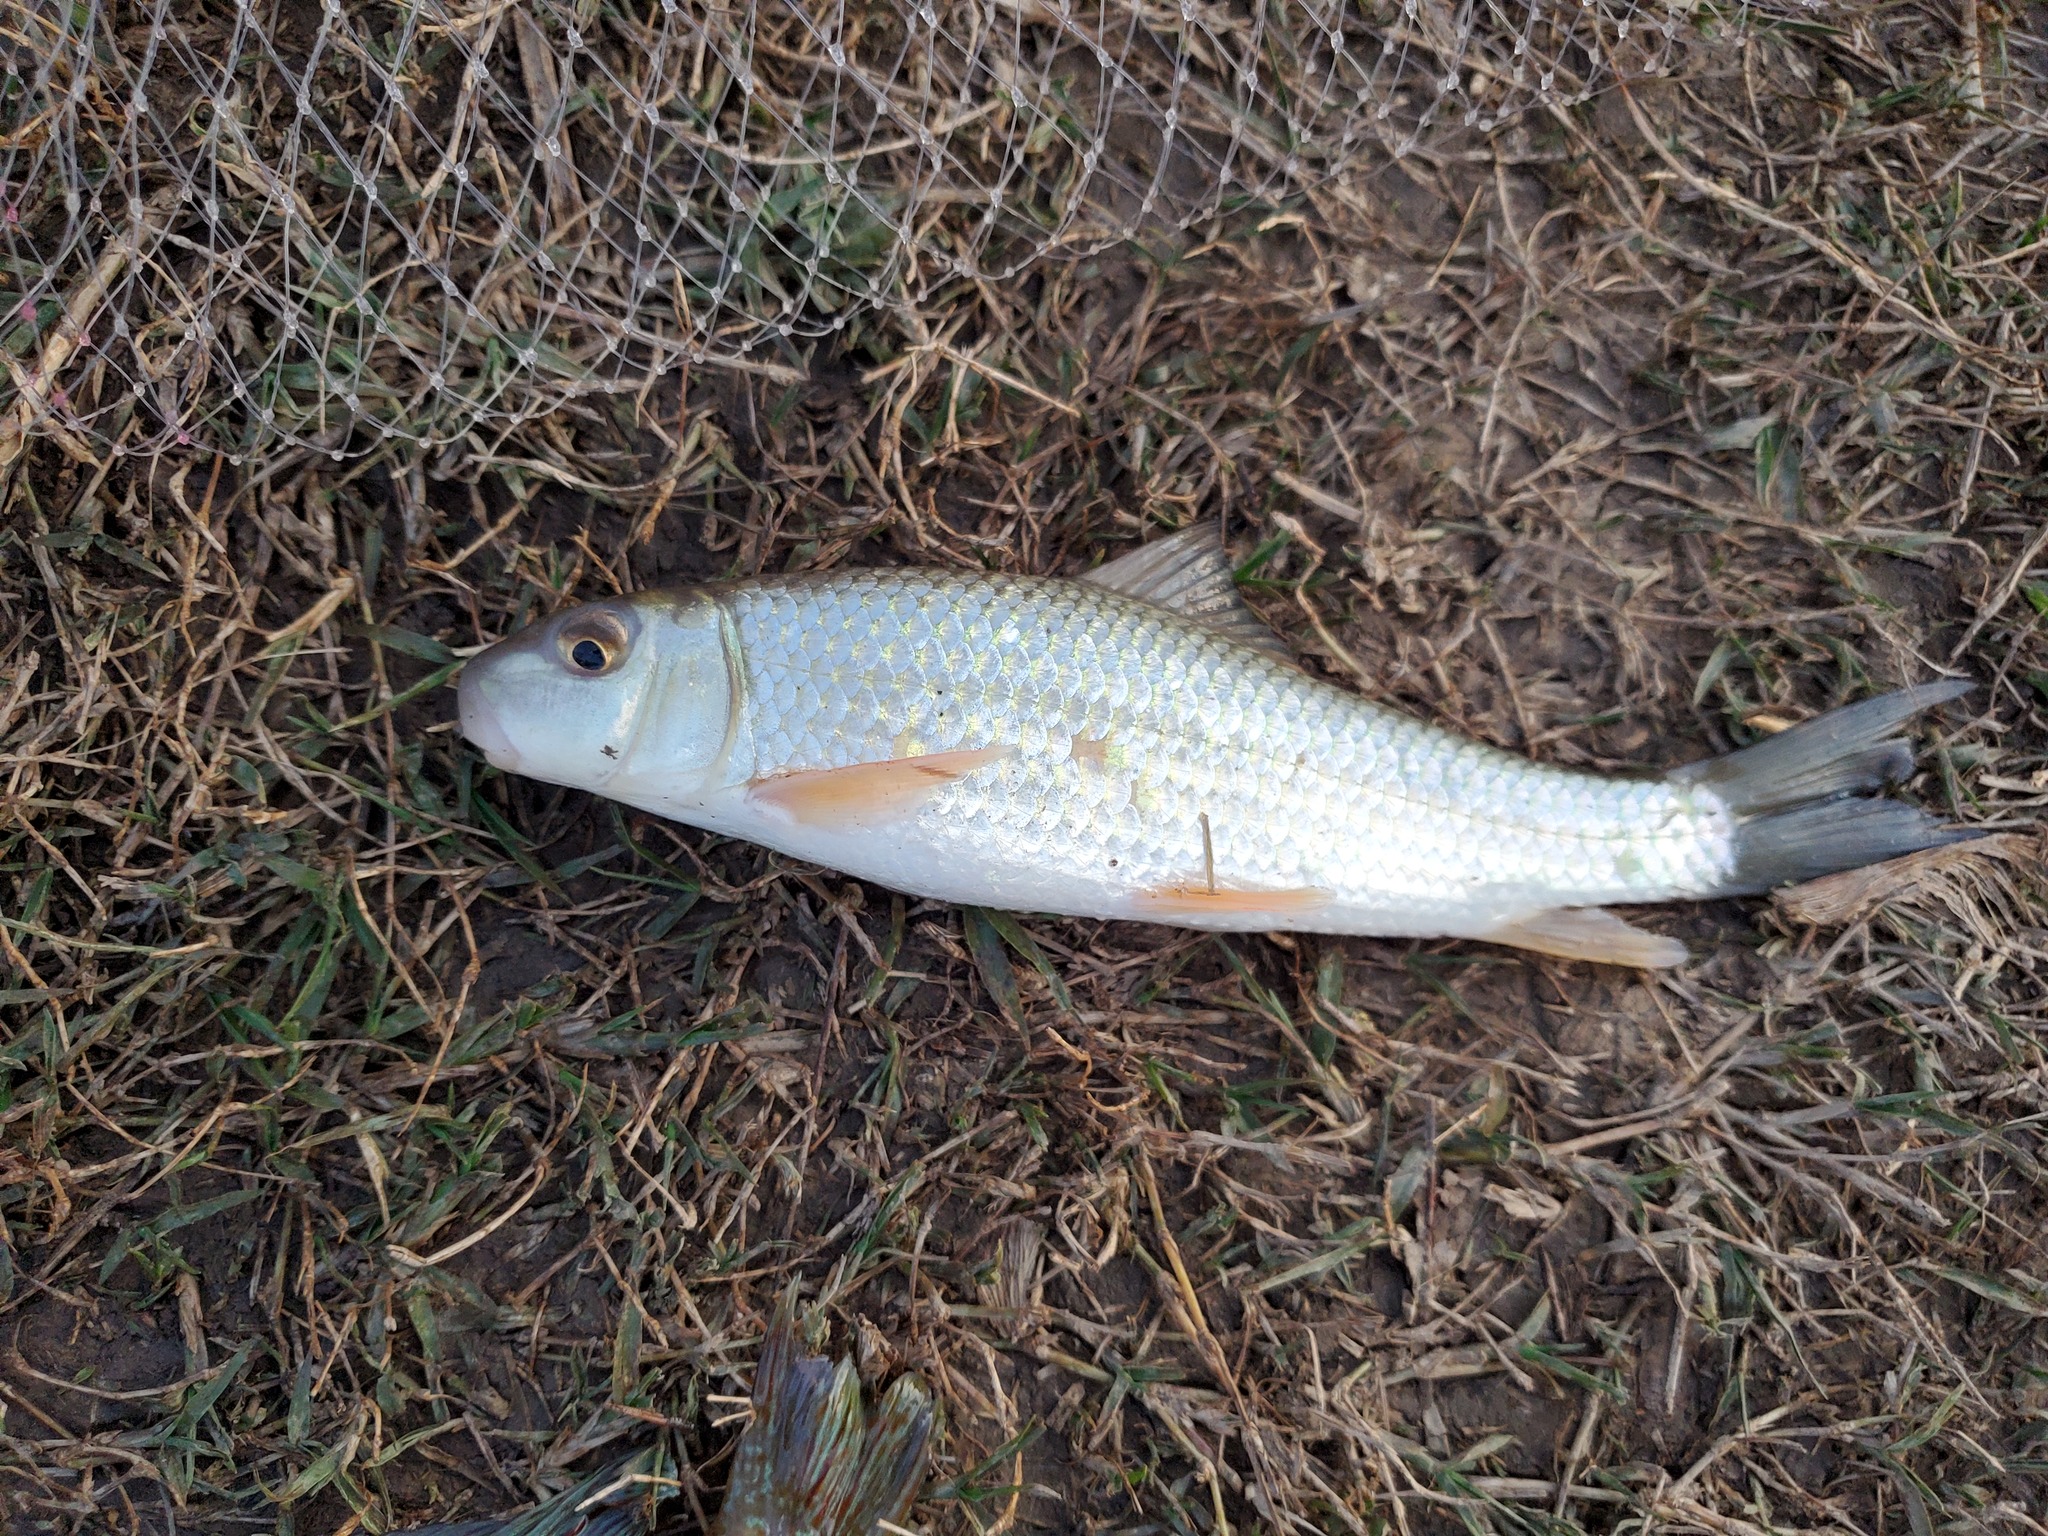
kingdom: Animalia
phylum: Chordata
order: Cypriniformes
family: Catostomidae
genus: Moxostoma
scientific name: Moxostoma erythrurum
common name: Golden redhorse
